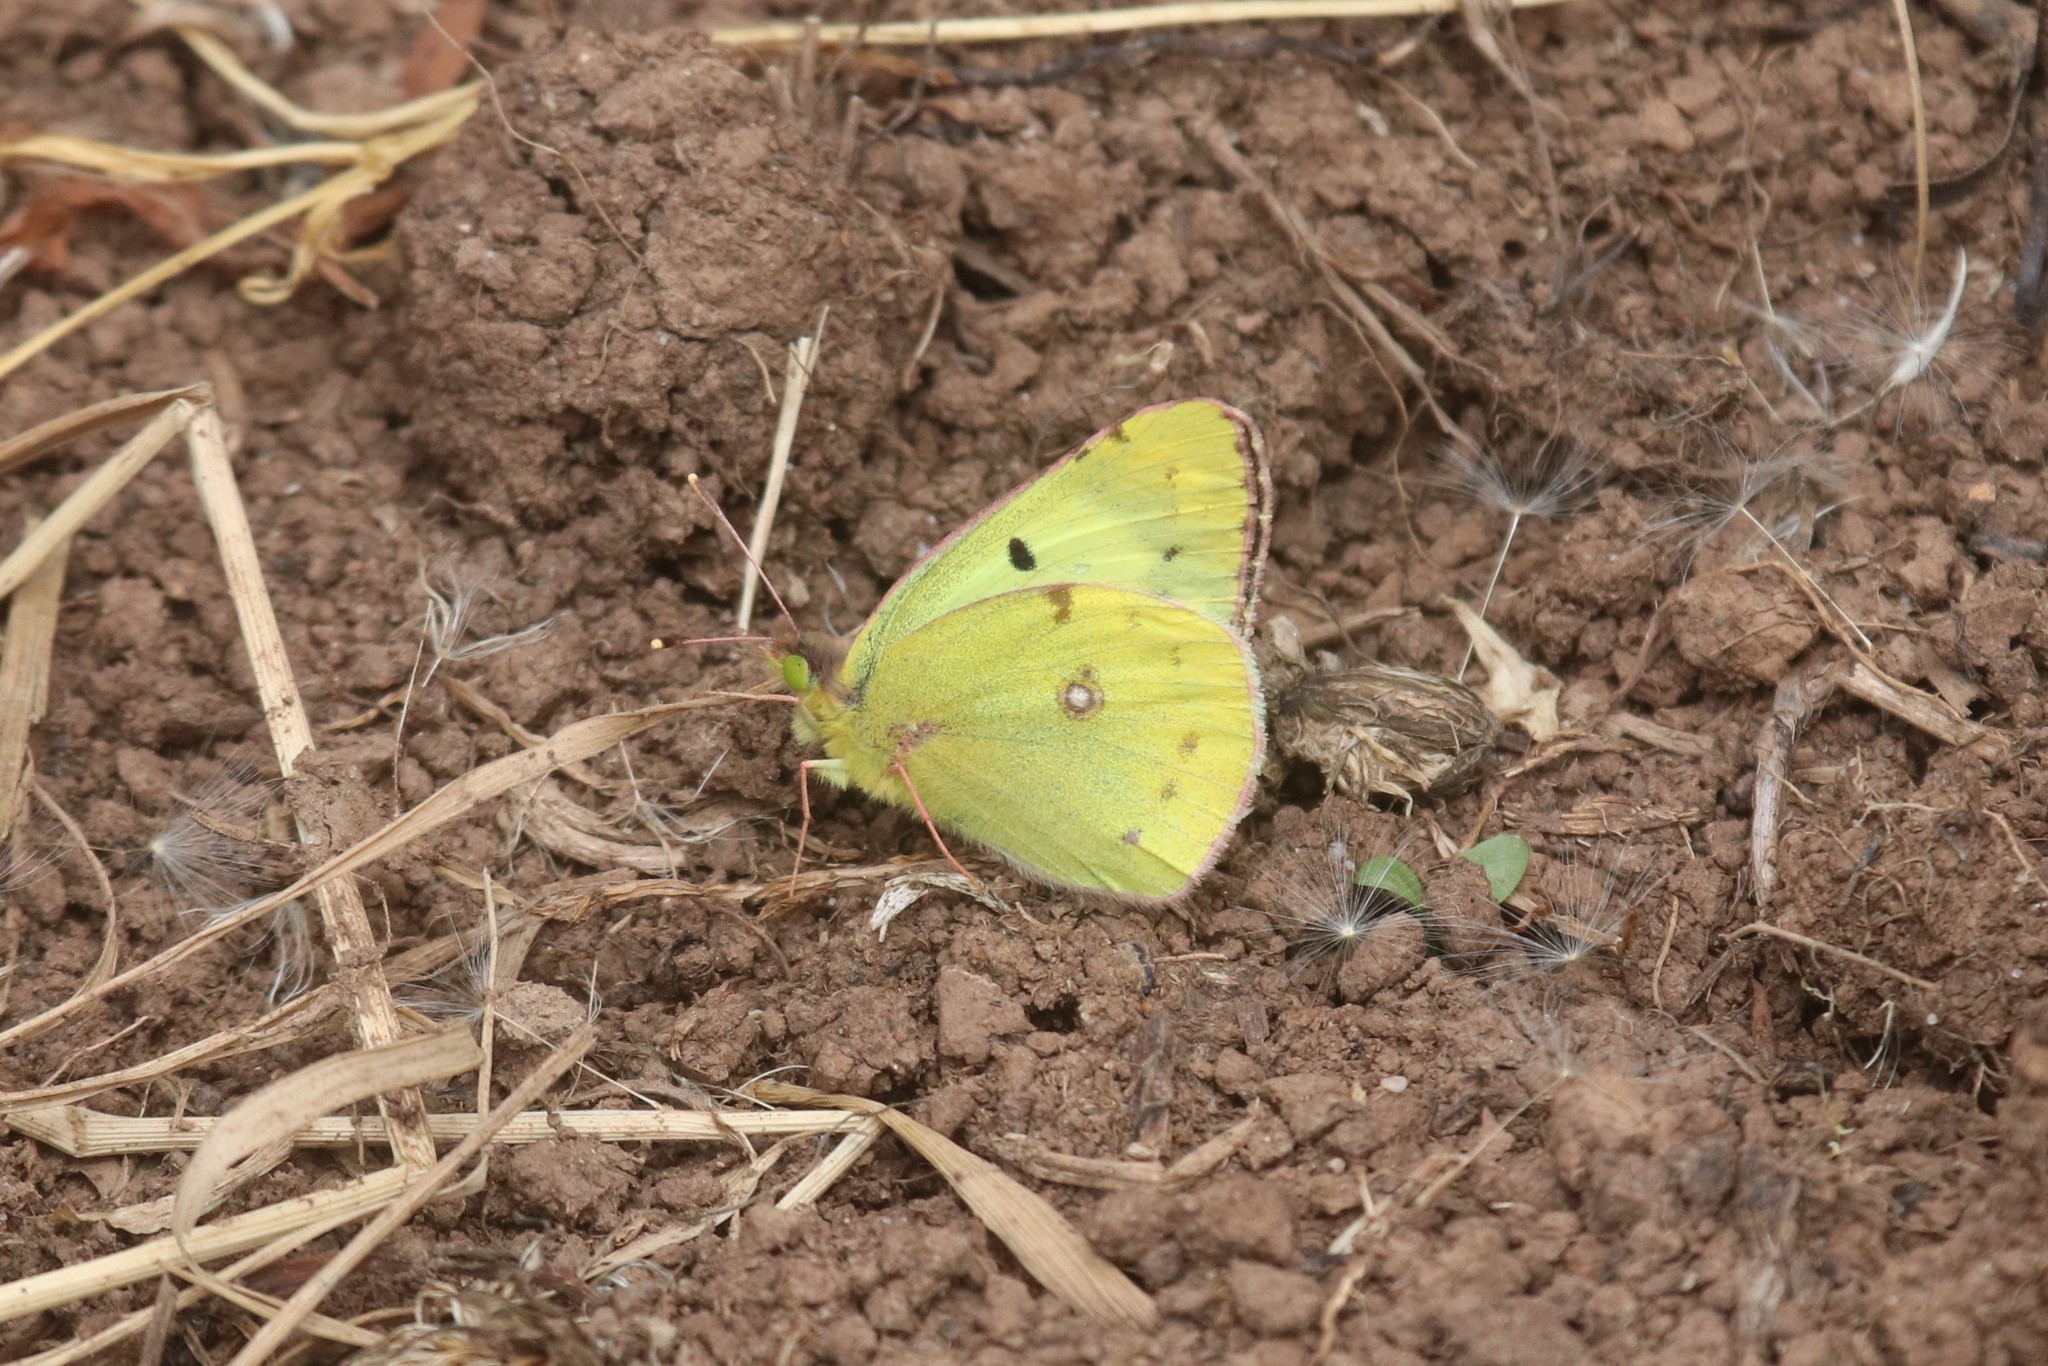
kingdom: Animalia
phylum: Arthropoda
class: Insecta
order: Lepidoptera
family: Pieridae
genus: Colias
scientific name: Colias hyale
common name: Pale clouded yellow
